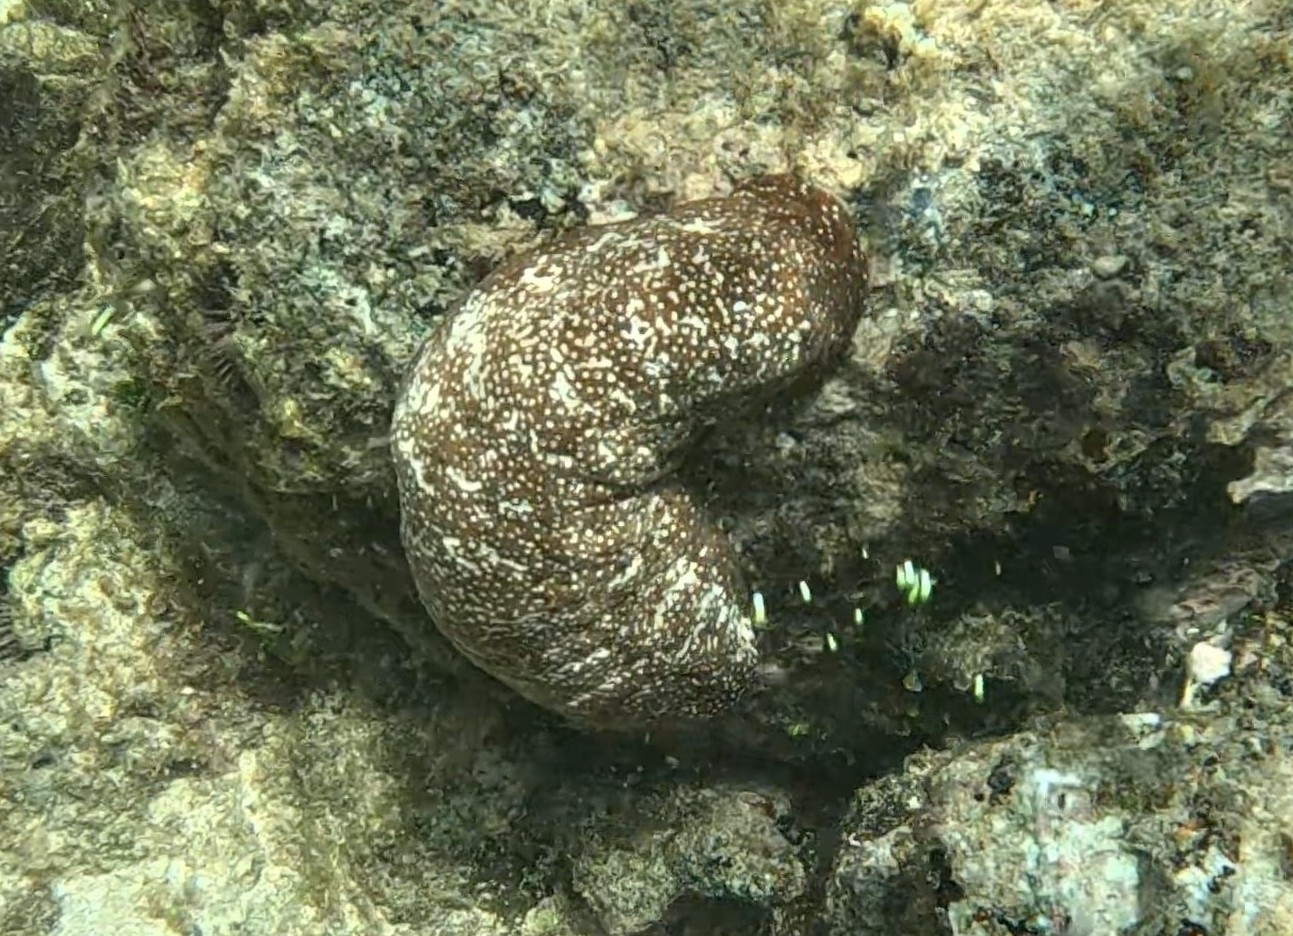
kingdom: Animalia
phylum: Echinodermata
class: Holothuroidea
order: Holothuriida
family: Holothuriidae
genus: Actinopyga
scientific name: Actinopyga varians
